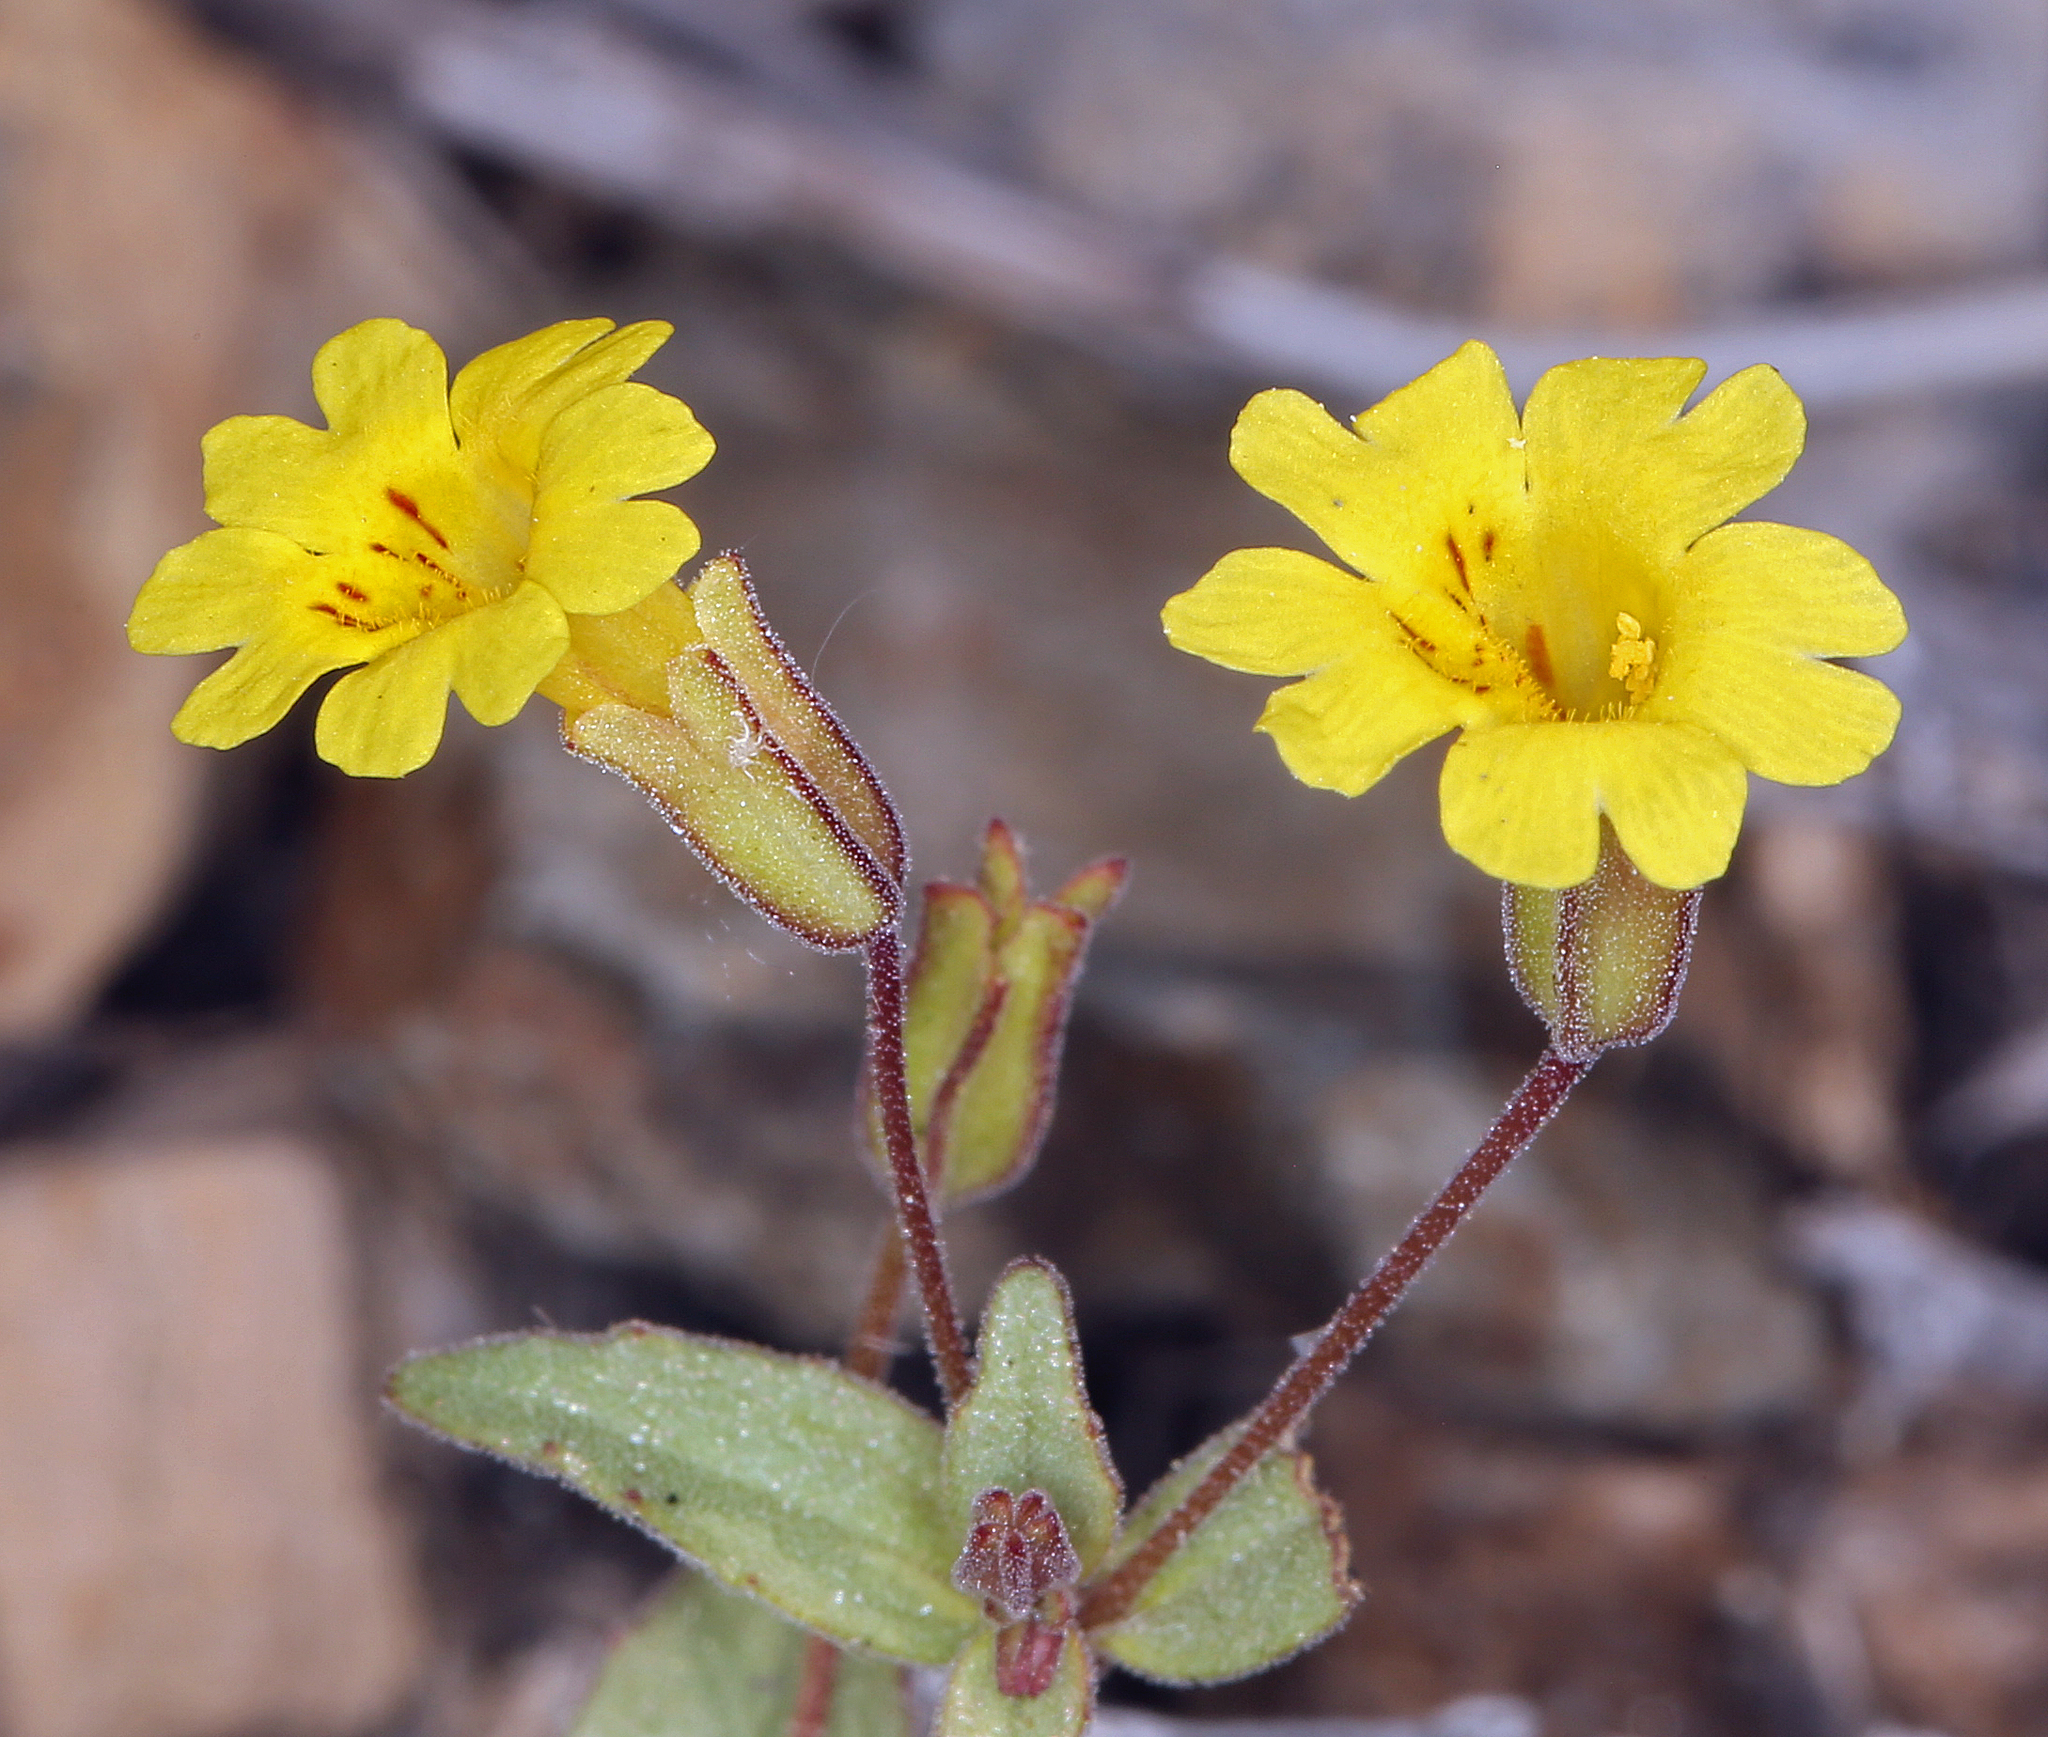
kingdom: Plantae
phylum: Tracheophyta
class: Magnoliopsida
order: Lamiales
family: Phrymaceae
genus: Erythranthe
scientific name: Erythranthe calcicola
